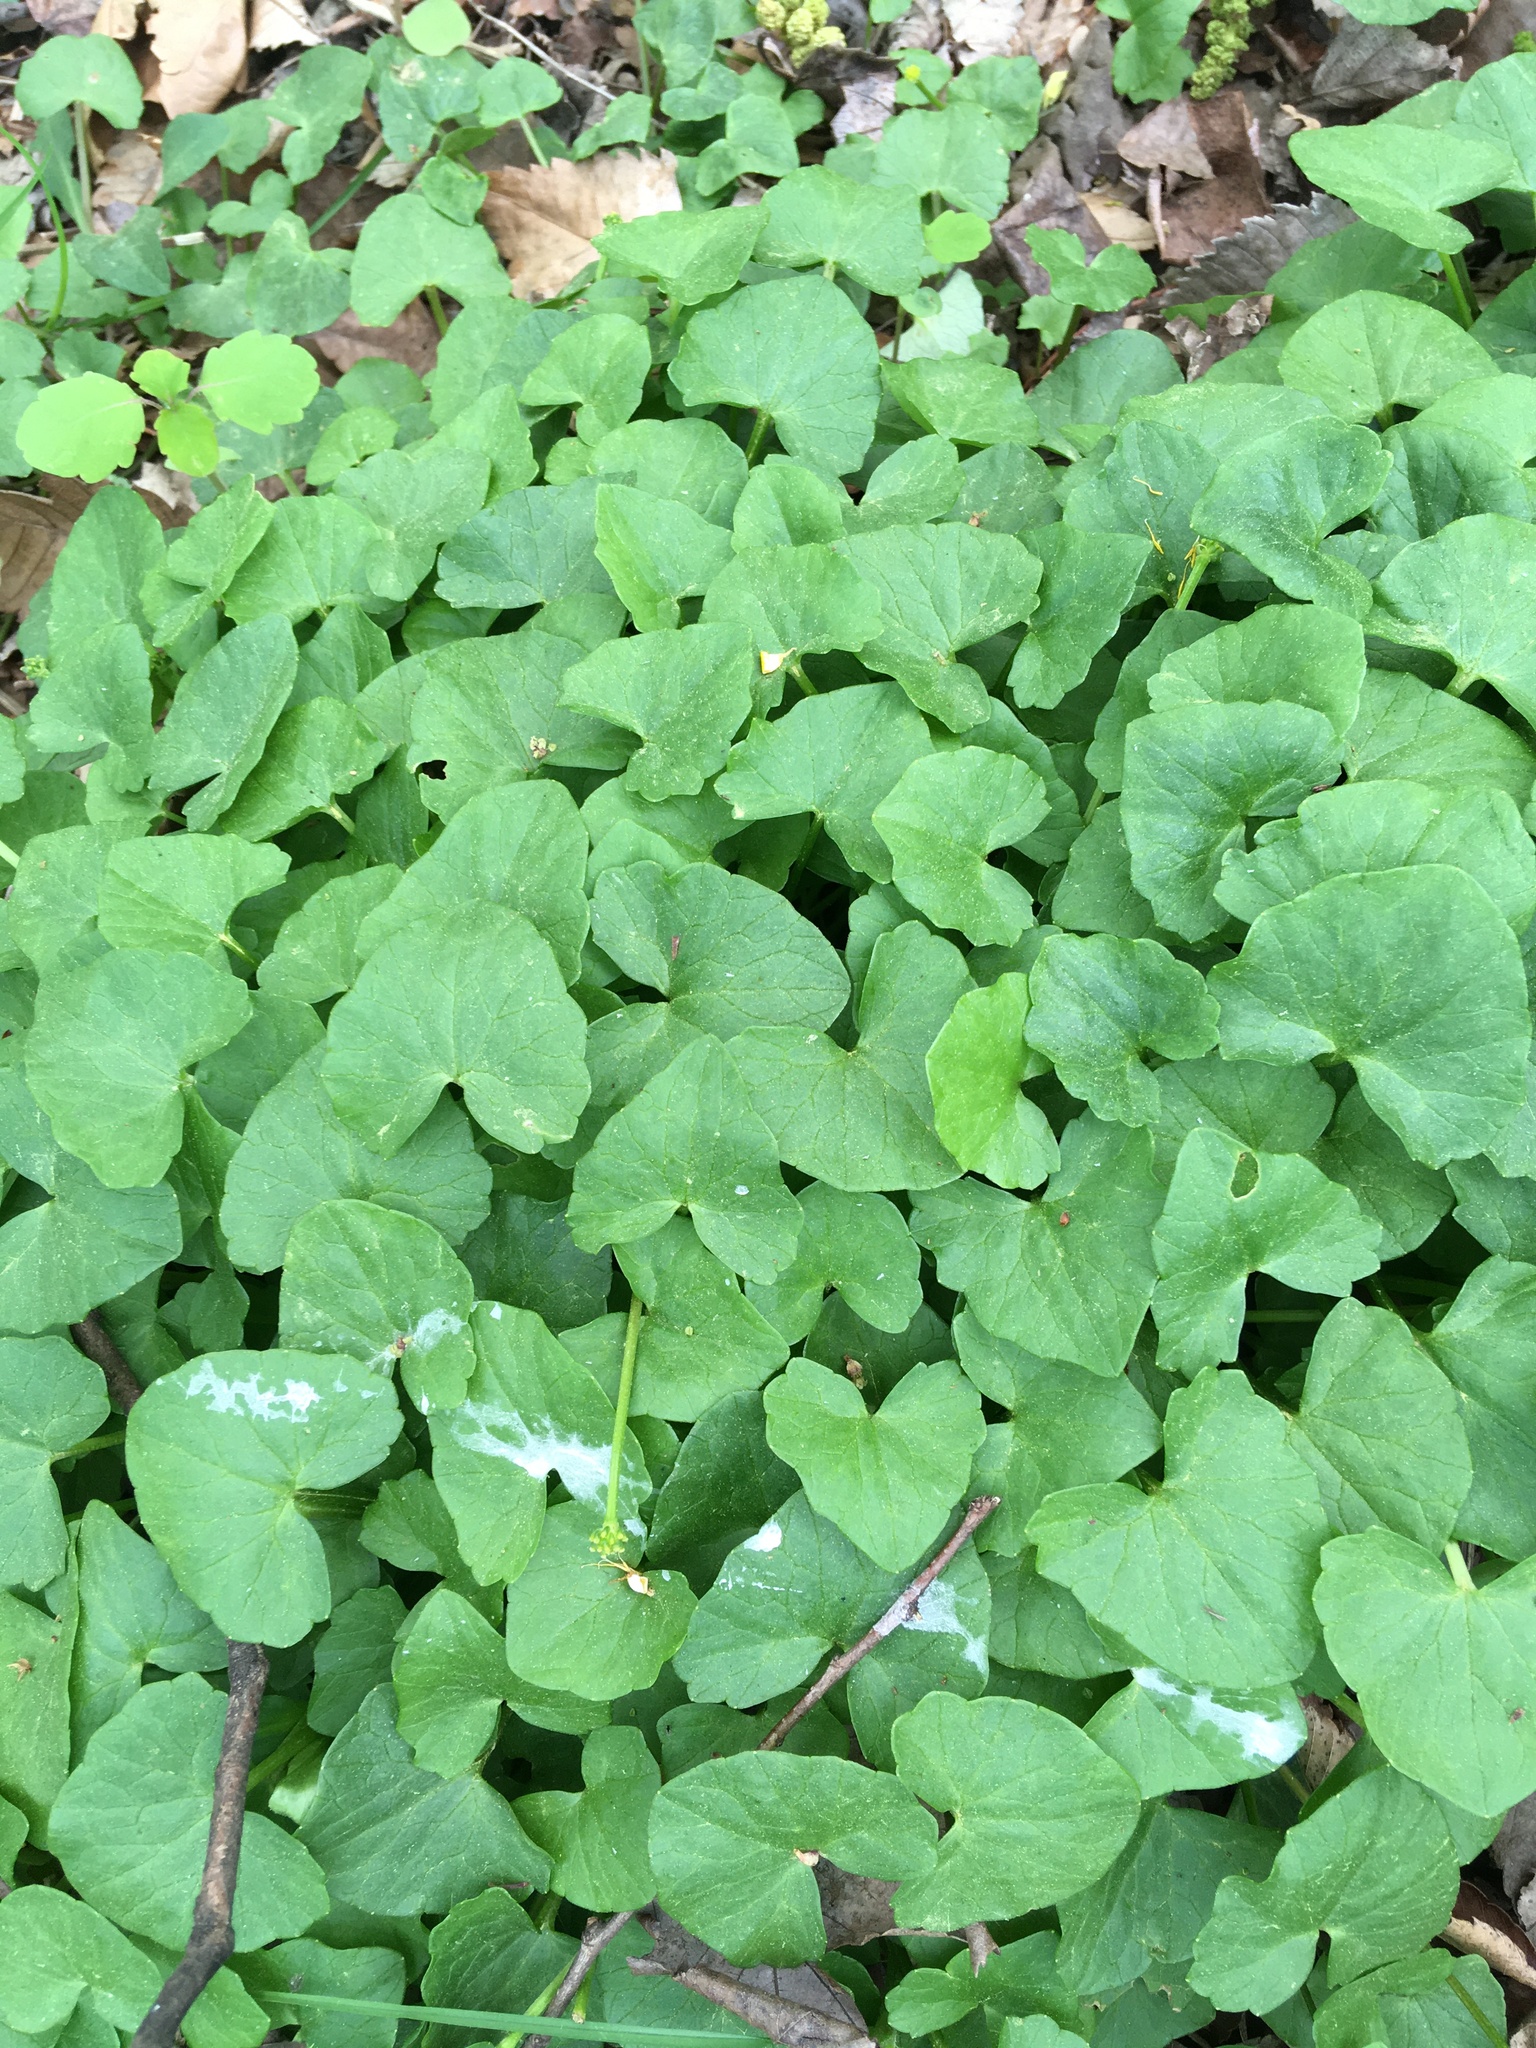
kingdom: Plantae
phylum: Tracheophyta
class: Magnoliopsida
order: Ranunculales
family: Ranunculaceae
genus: Ficaria
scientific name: Ficaria verna
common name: Lesser celandine
